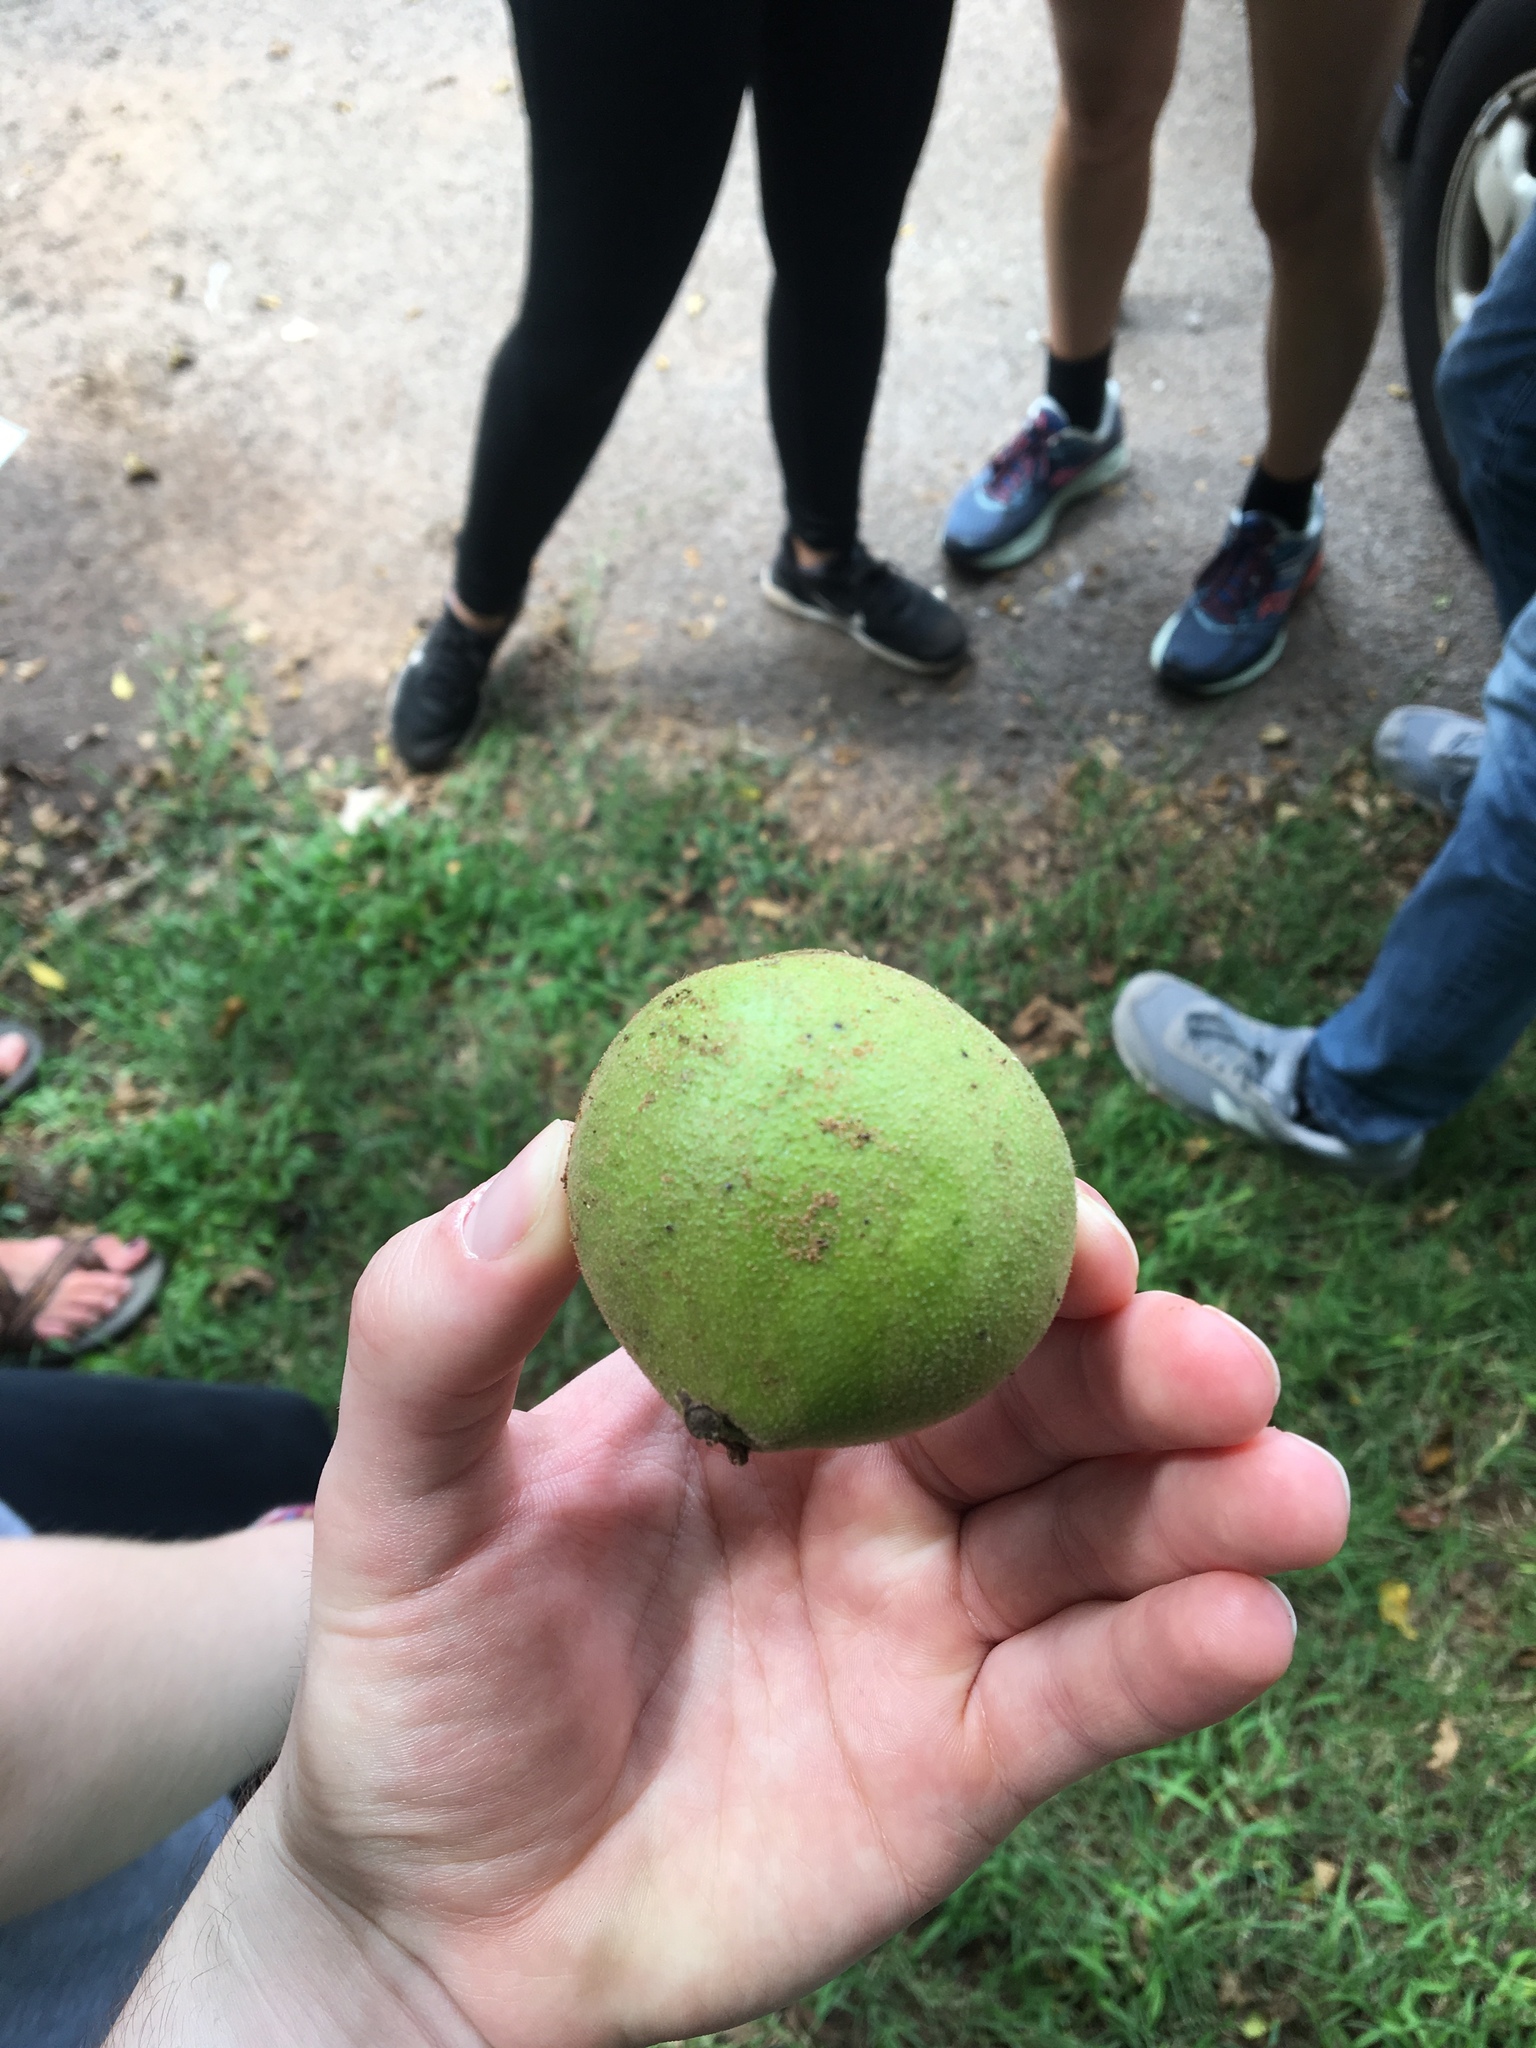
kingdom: Plantae
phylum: Tracheophyta
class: Magnoliopsida
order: Fagales
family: Juglandaceae
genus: Juglans
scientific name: Juglans nigra
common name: Black walnut
